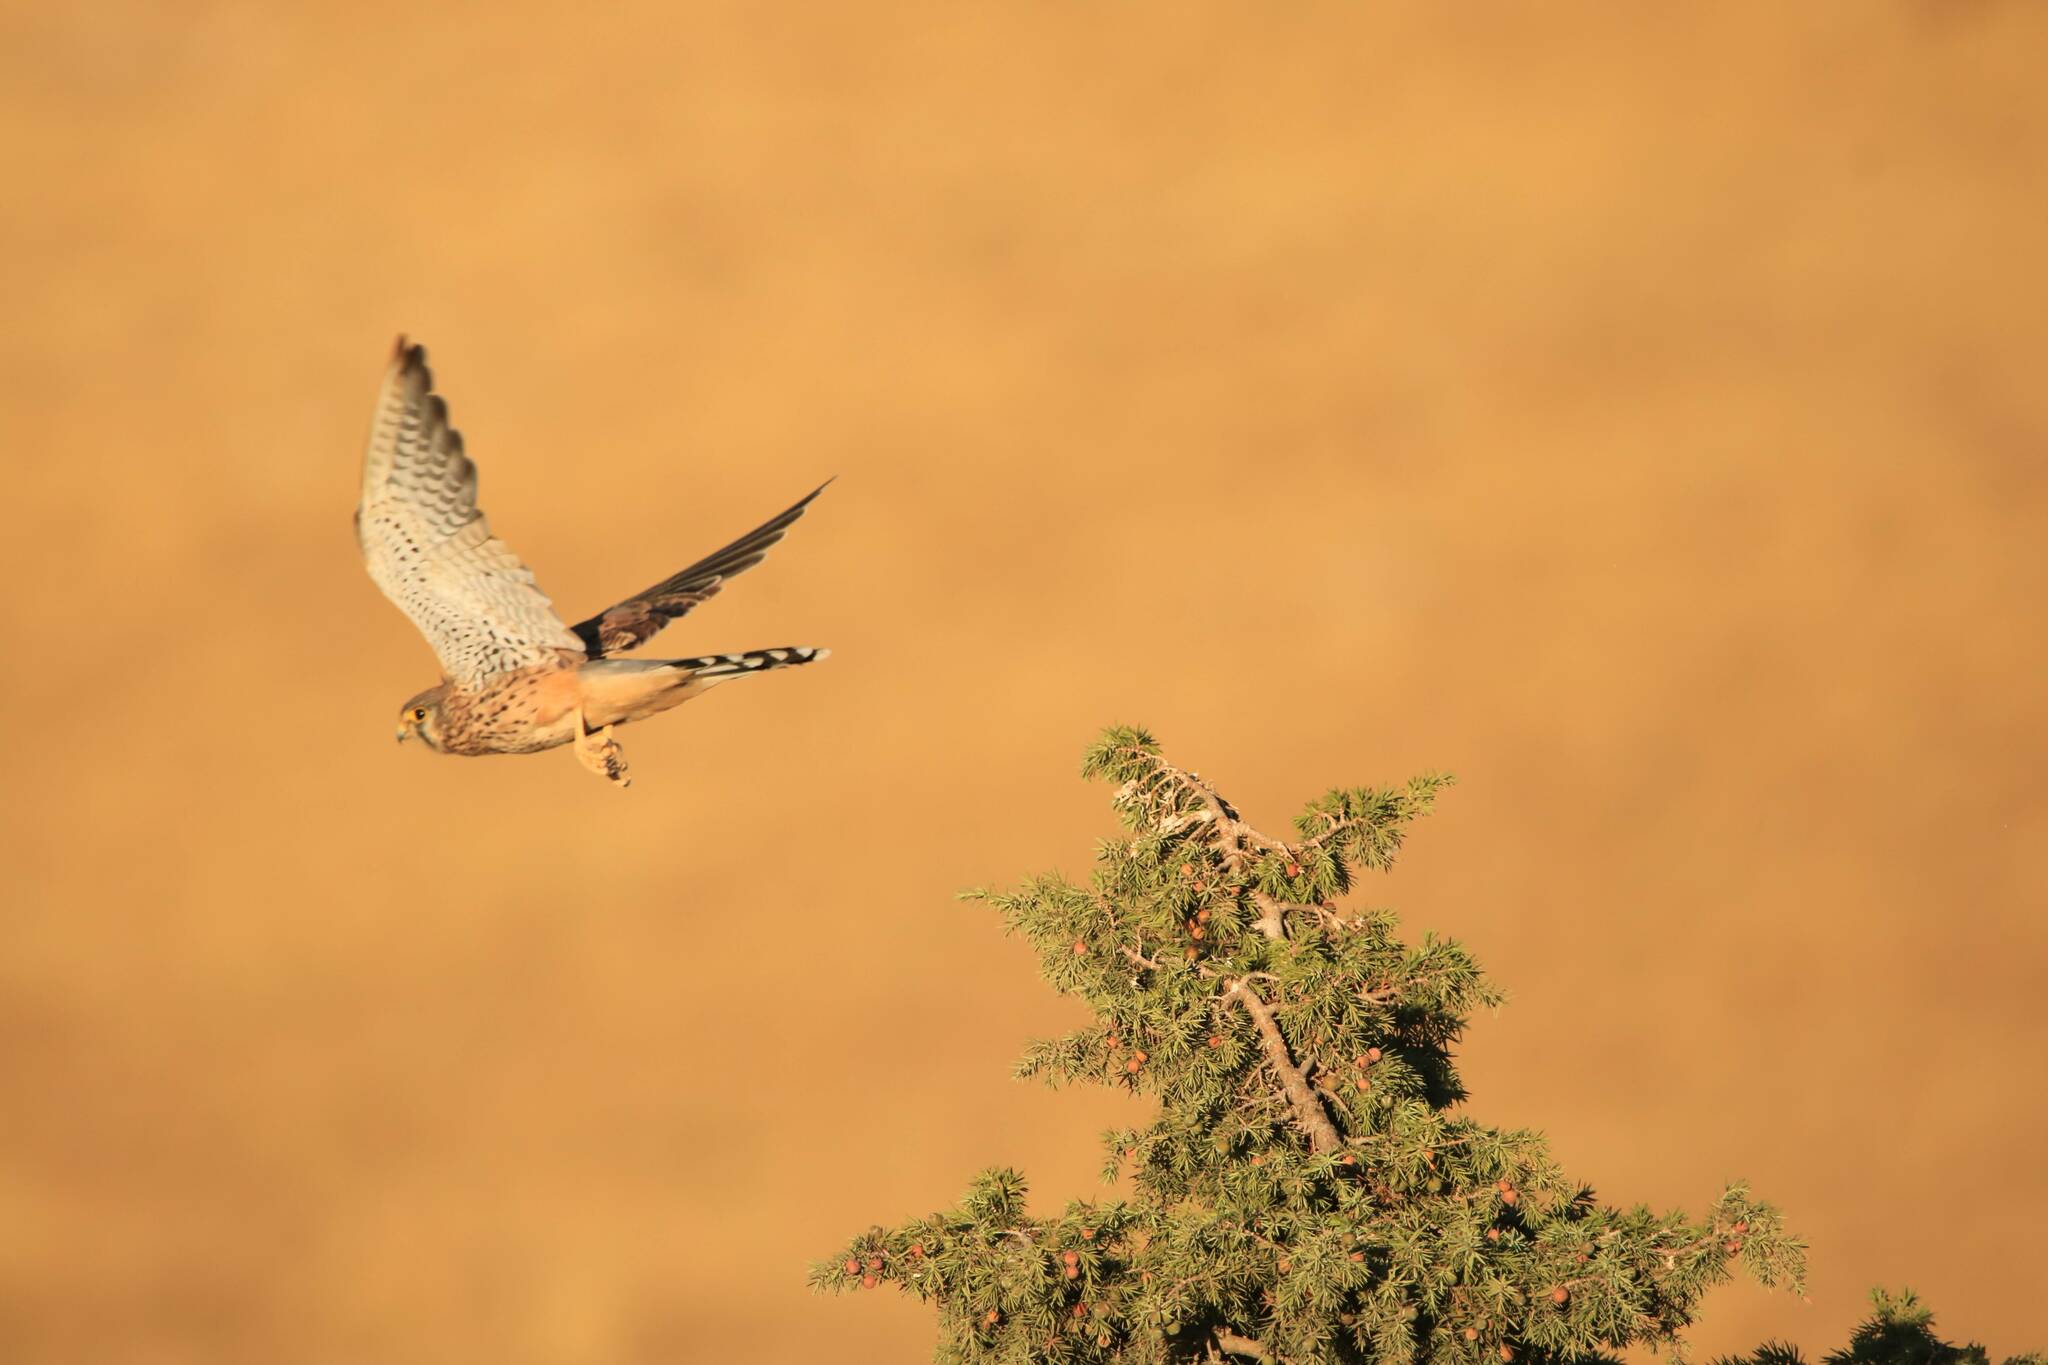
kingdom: Animalia
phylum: Chordata
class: Aves
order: Falconiformes
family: Falconidae
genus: Falco
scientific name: Falco tinnunculus
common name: Common kestrel
